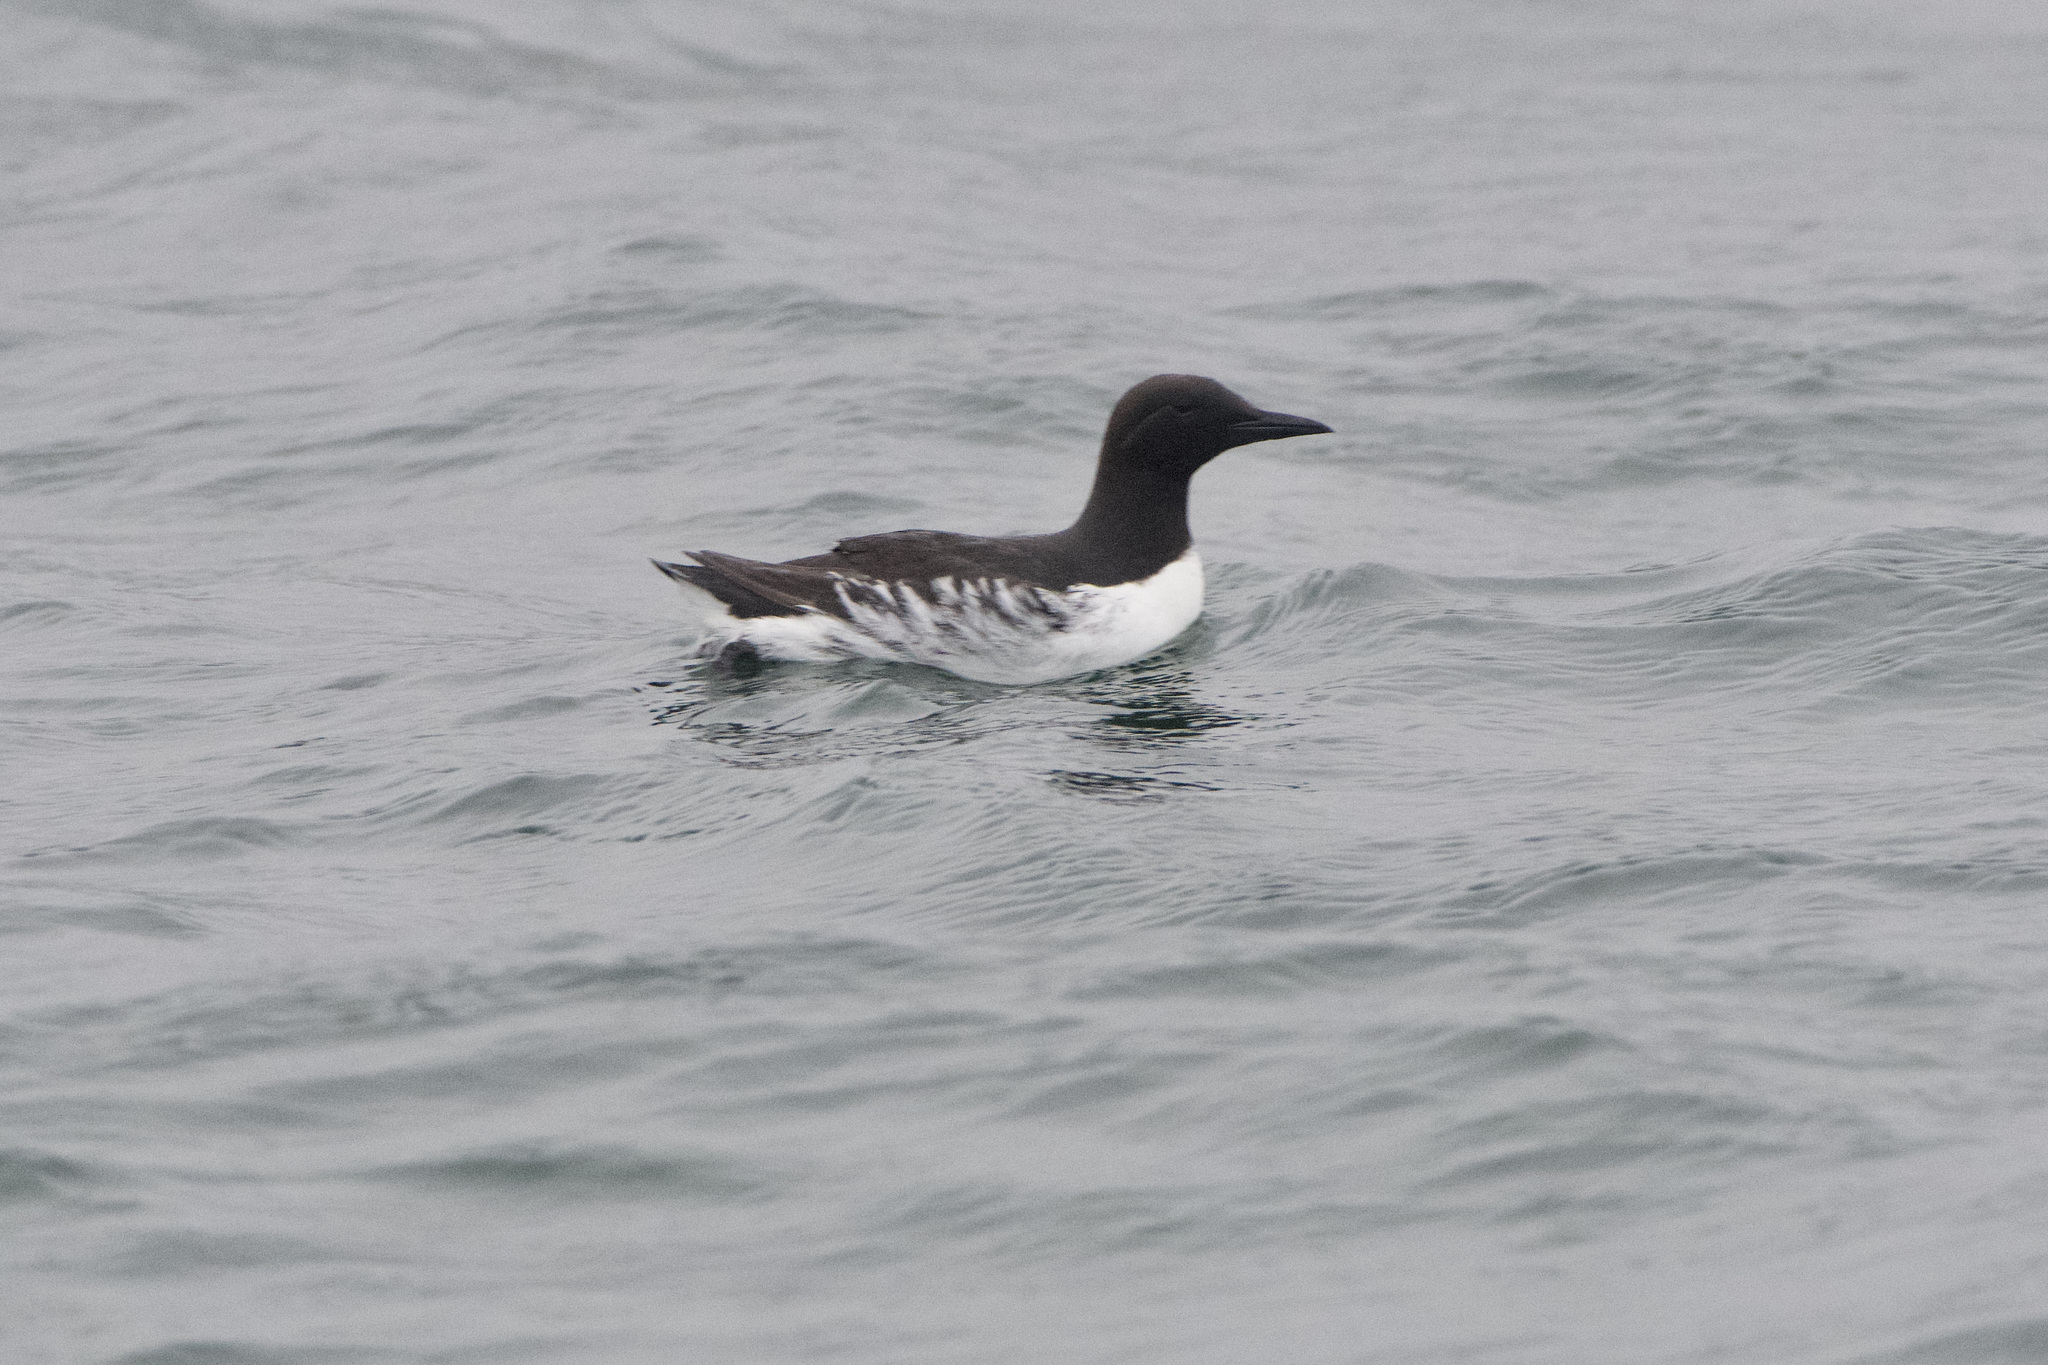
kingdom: Animalia
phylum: Chordata
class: Aves
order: Charadriiformes
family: Alcidae
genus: Uria
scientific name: Uria aalge
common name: Common murre
